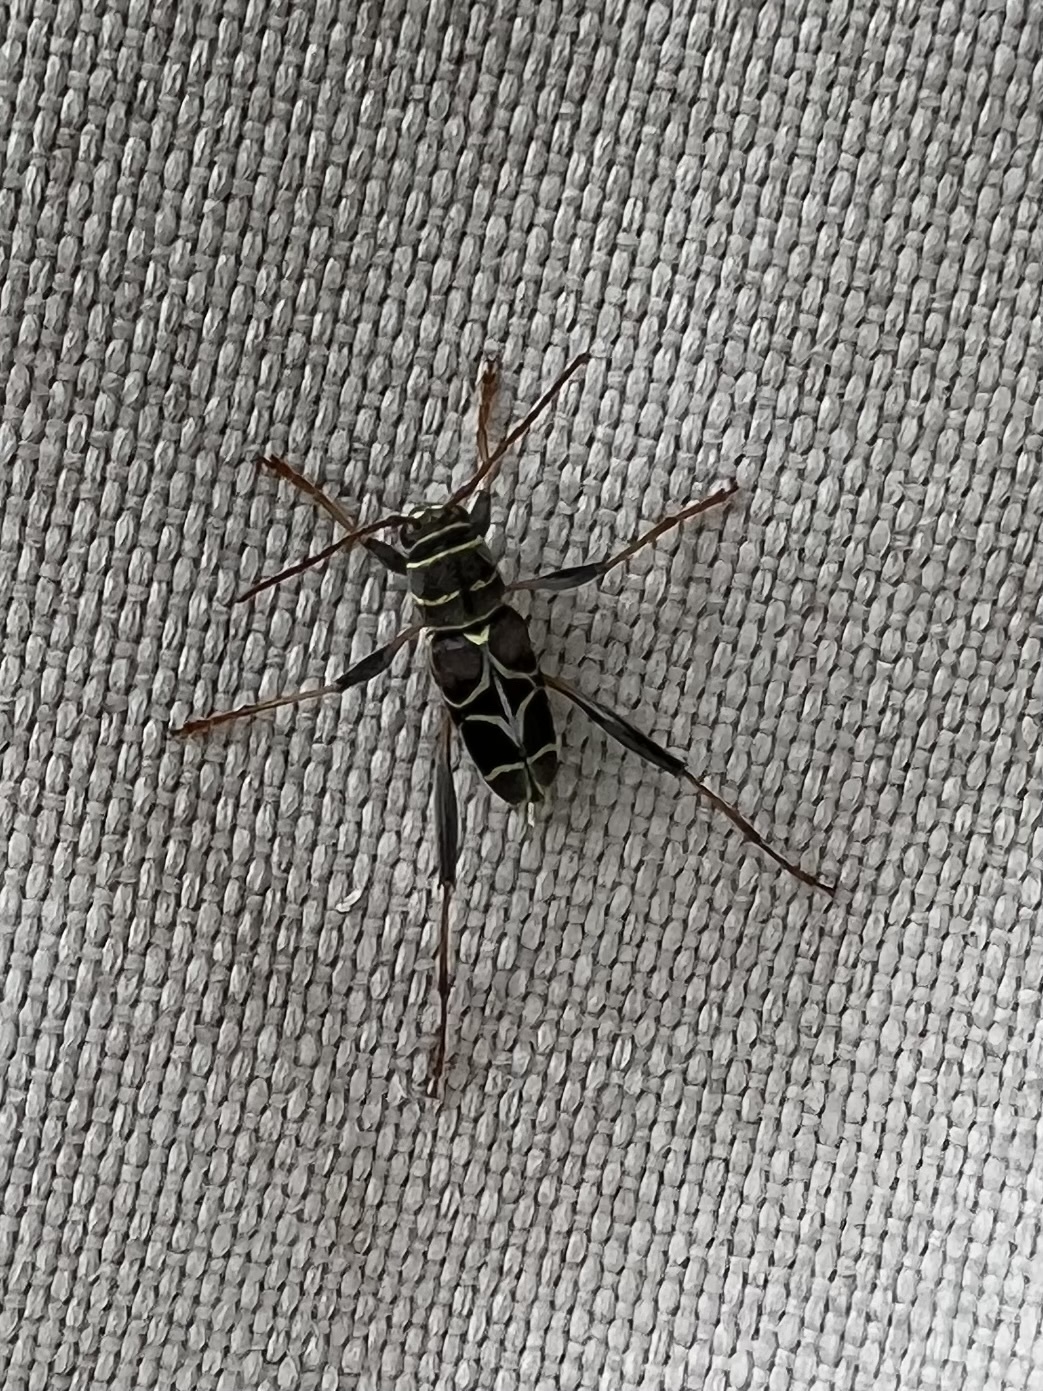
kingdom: Animalia
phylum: Arthropoda
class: Insecta
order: Coleoptera
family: Cerambycidae
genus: Neoclytus
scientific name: Neoclytus scutellaris
